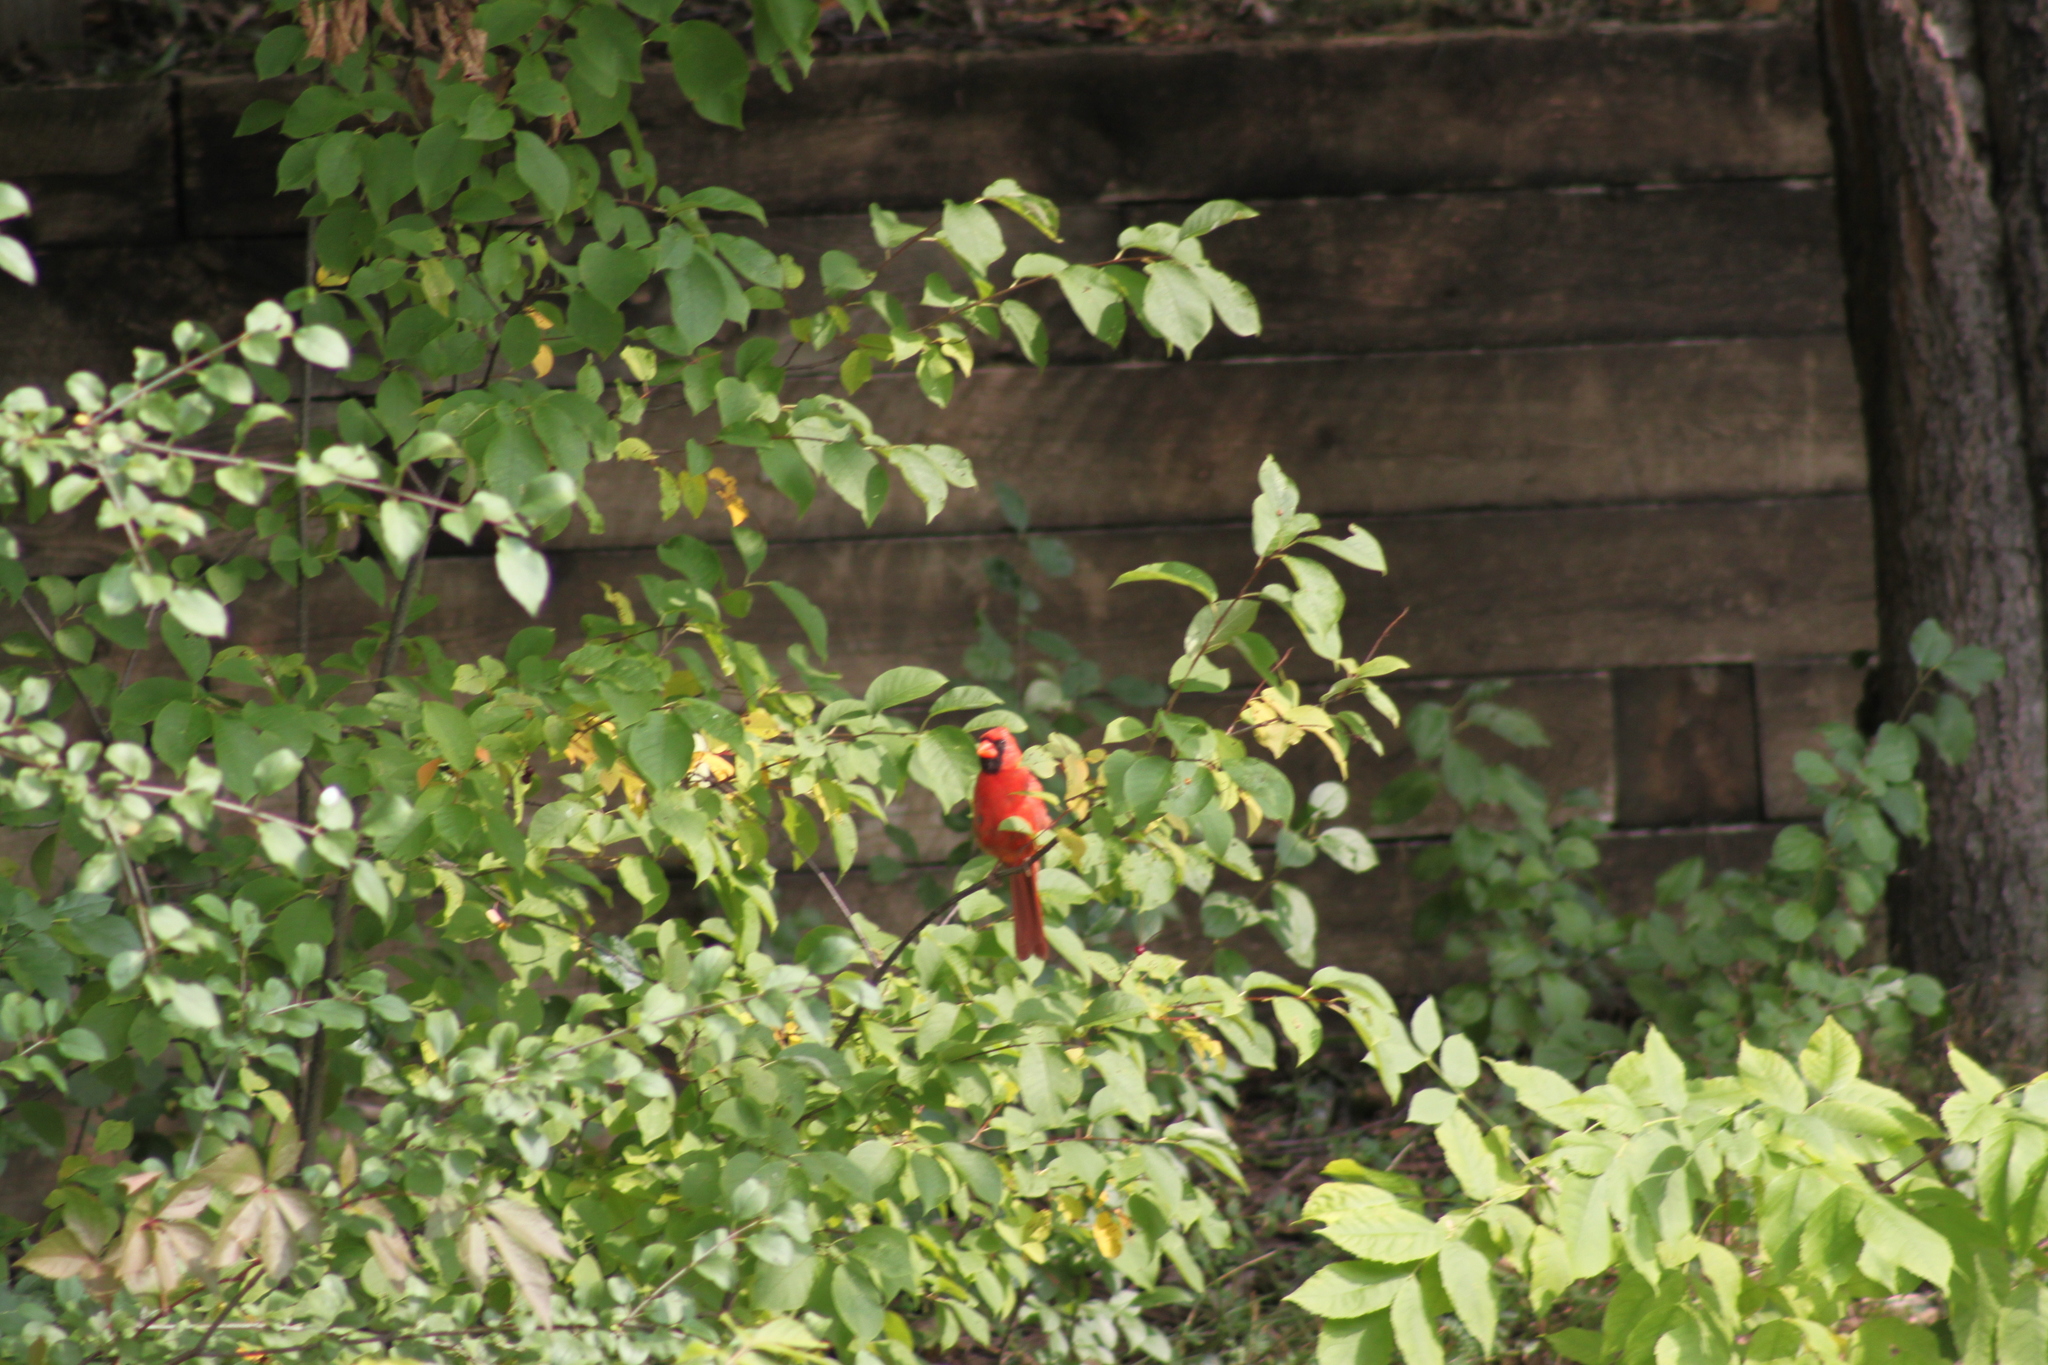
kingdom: Animalia
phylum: Chordata
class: Aves
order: Passeriformes
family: Cardinalidae
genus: Cardinalis
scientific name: Cardinalis cardinalis
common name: Northern cardinal
